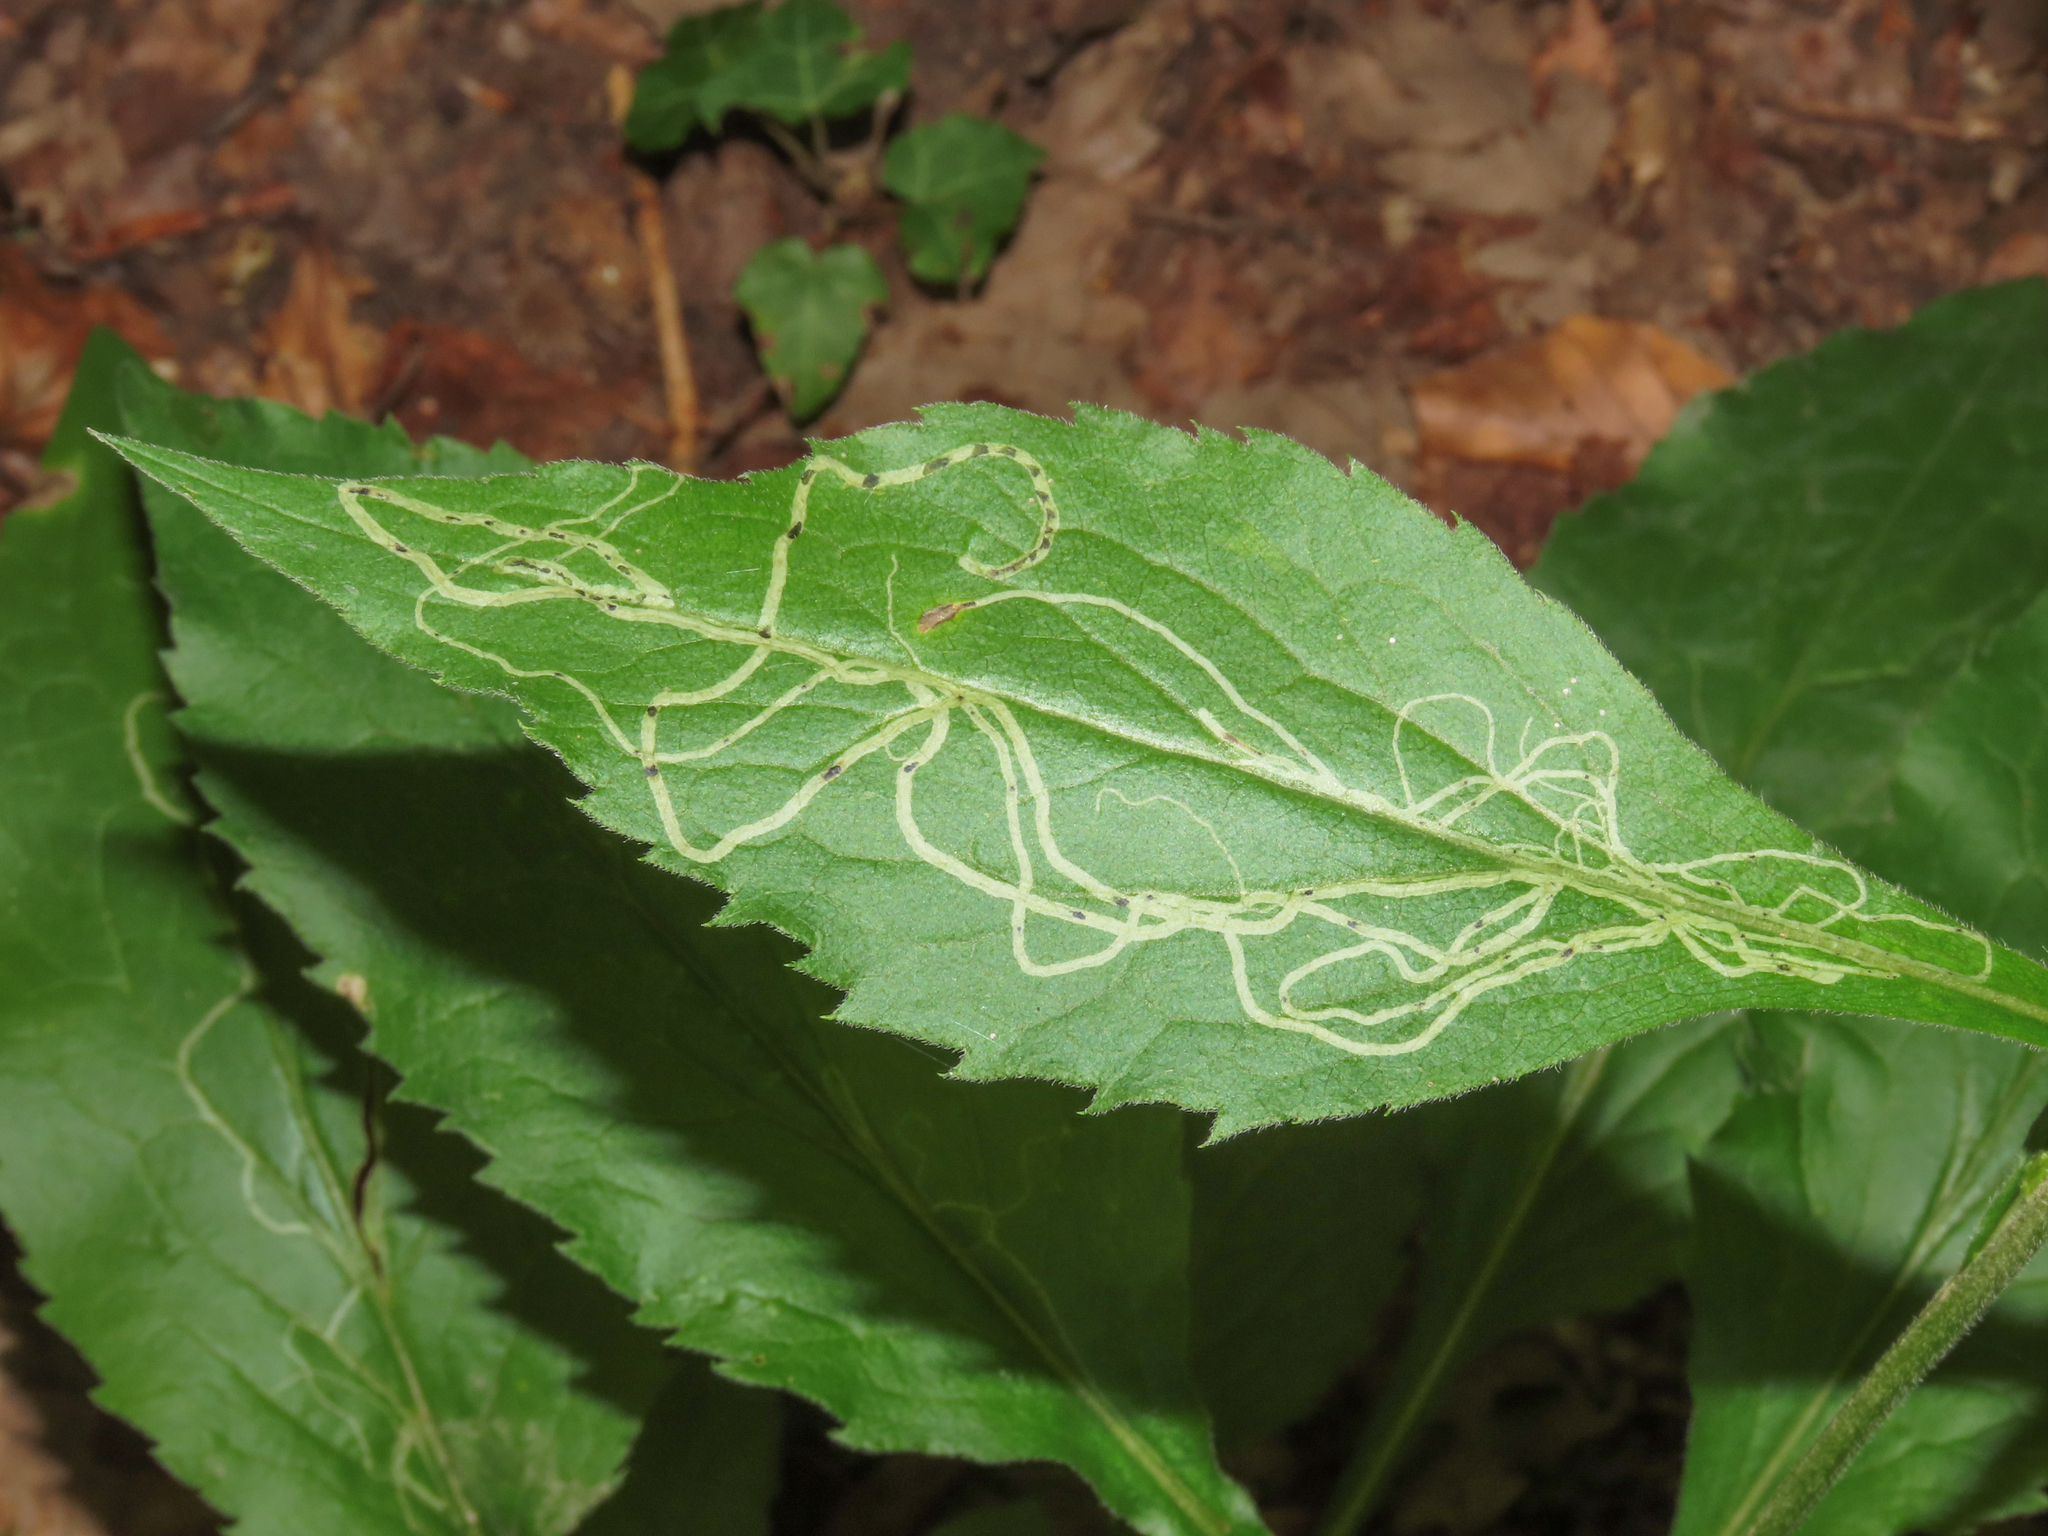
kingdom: Animalia
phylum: Arthropoda
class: Insecta
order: Diptera
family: Agromyzidae
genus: Ophiomyia
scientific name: Ophiomyia maura
